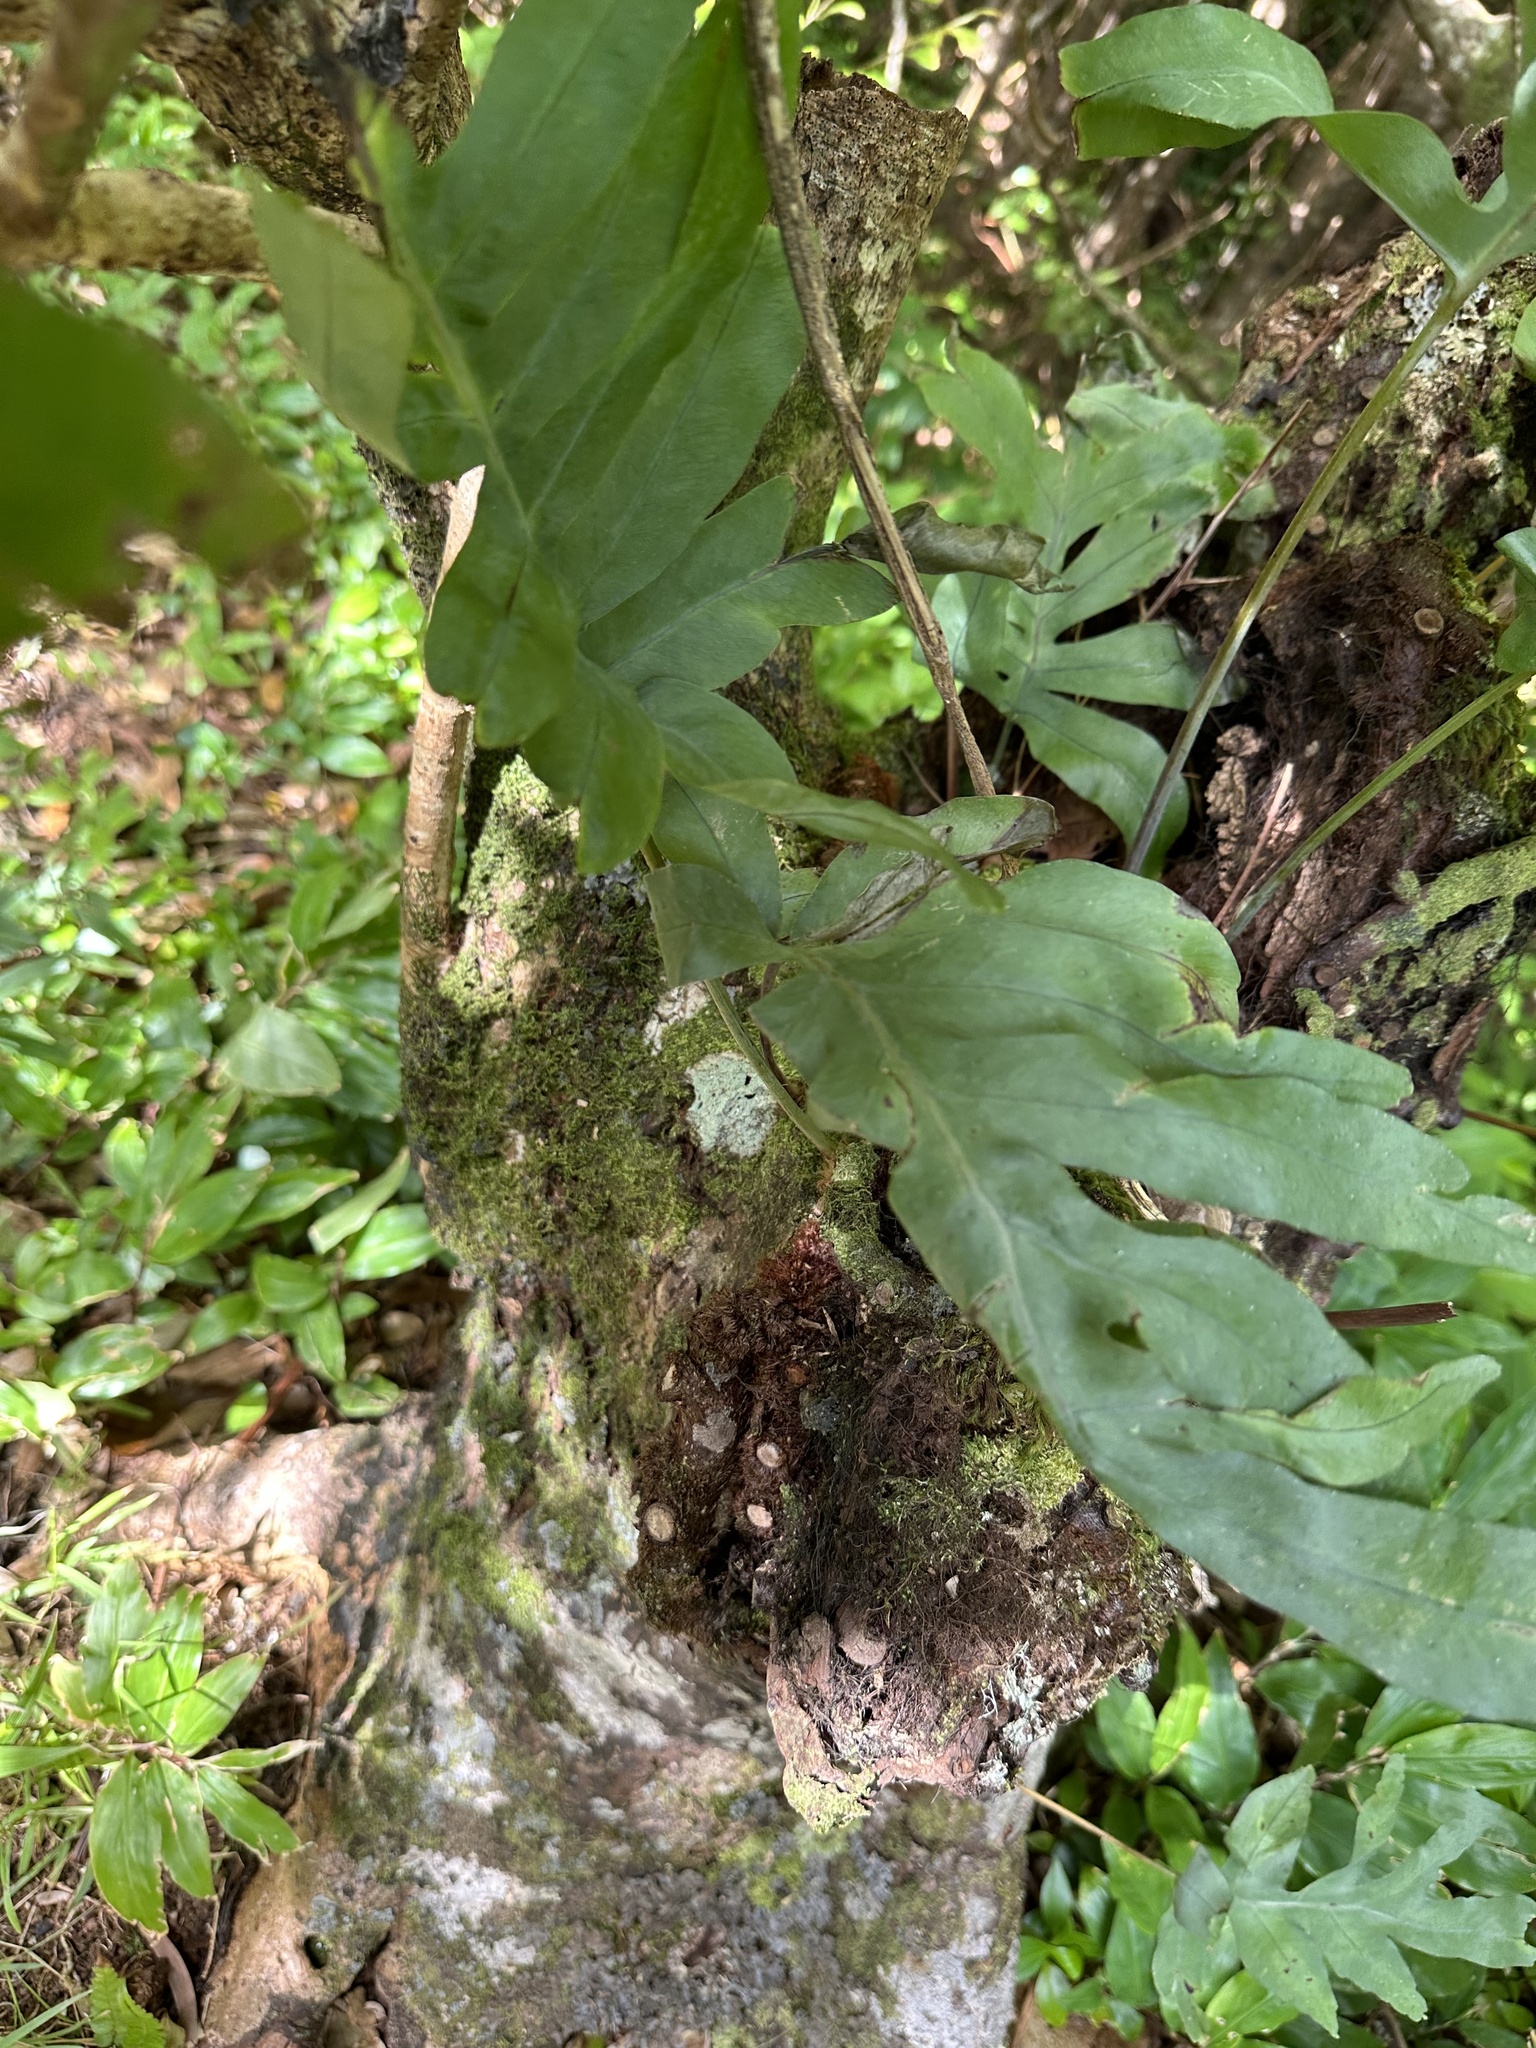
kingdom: Plantae
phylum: Tracheophyta
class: Polypodiopsida
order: Polypodiales
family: Polypodiaceae
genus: Phlebodium
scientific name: Phlebodium aureum
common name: Gold-foot fern
